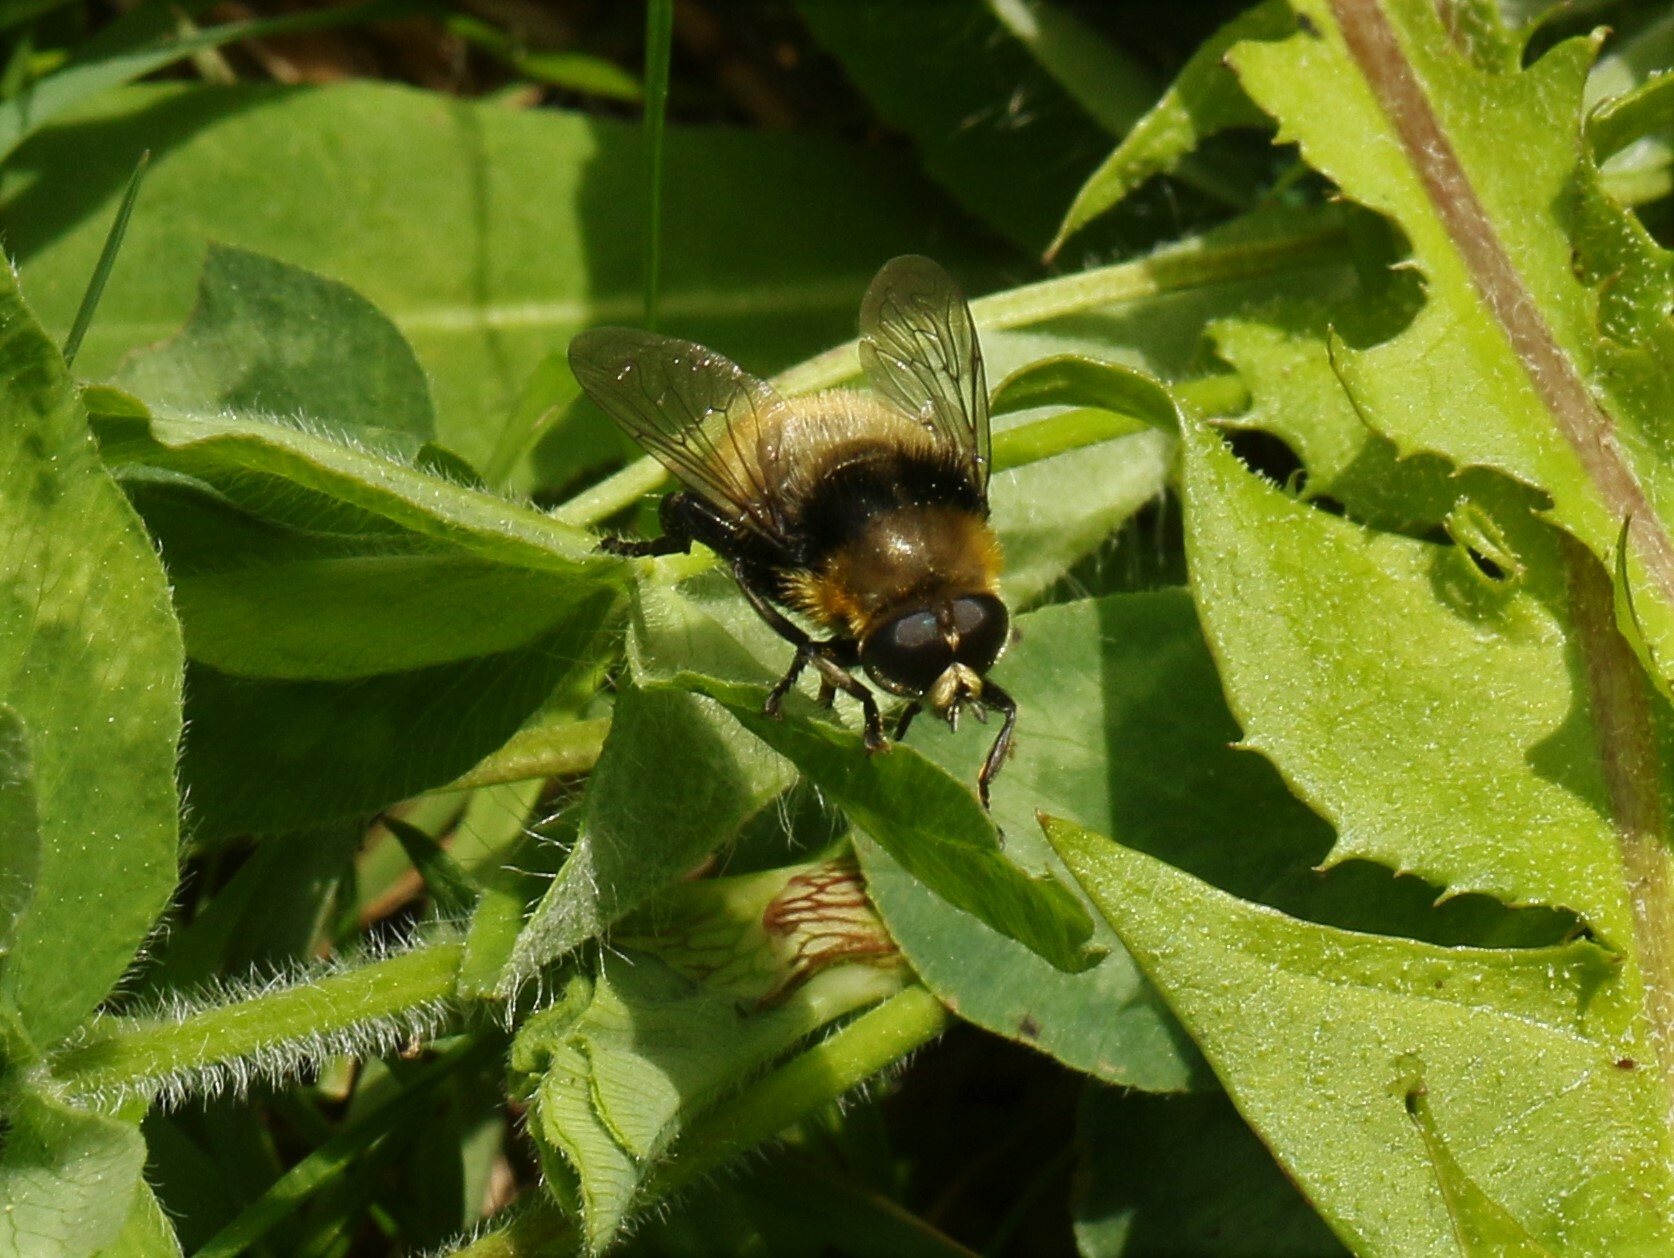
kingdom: Animalia
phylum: Arthropoda
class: Insecta
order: Diptera
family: Syrphidae
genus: Merodon
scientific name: Merodon equestris
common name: Greater bulb-fly
